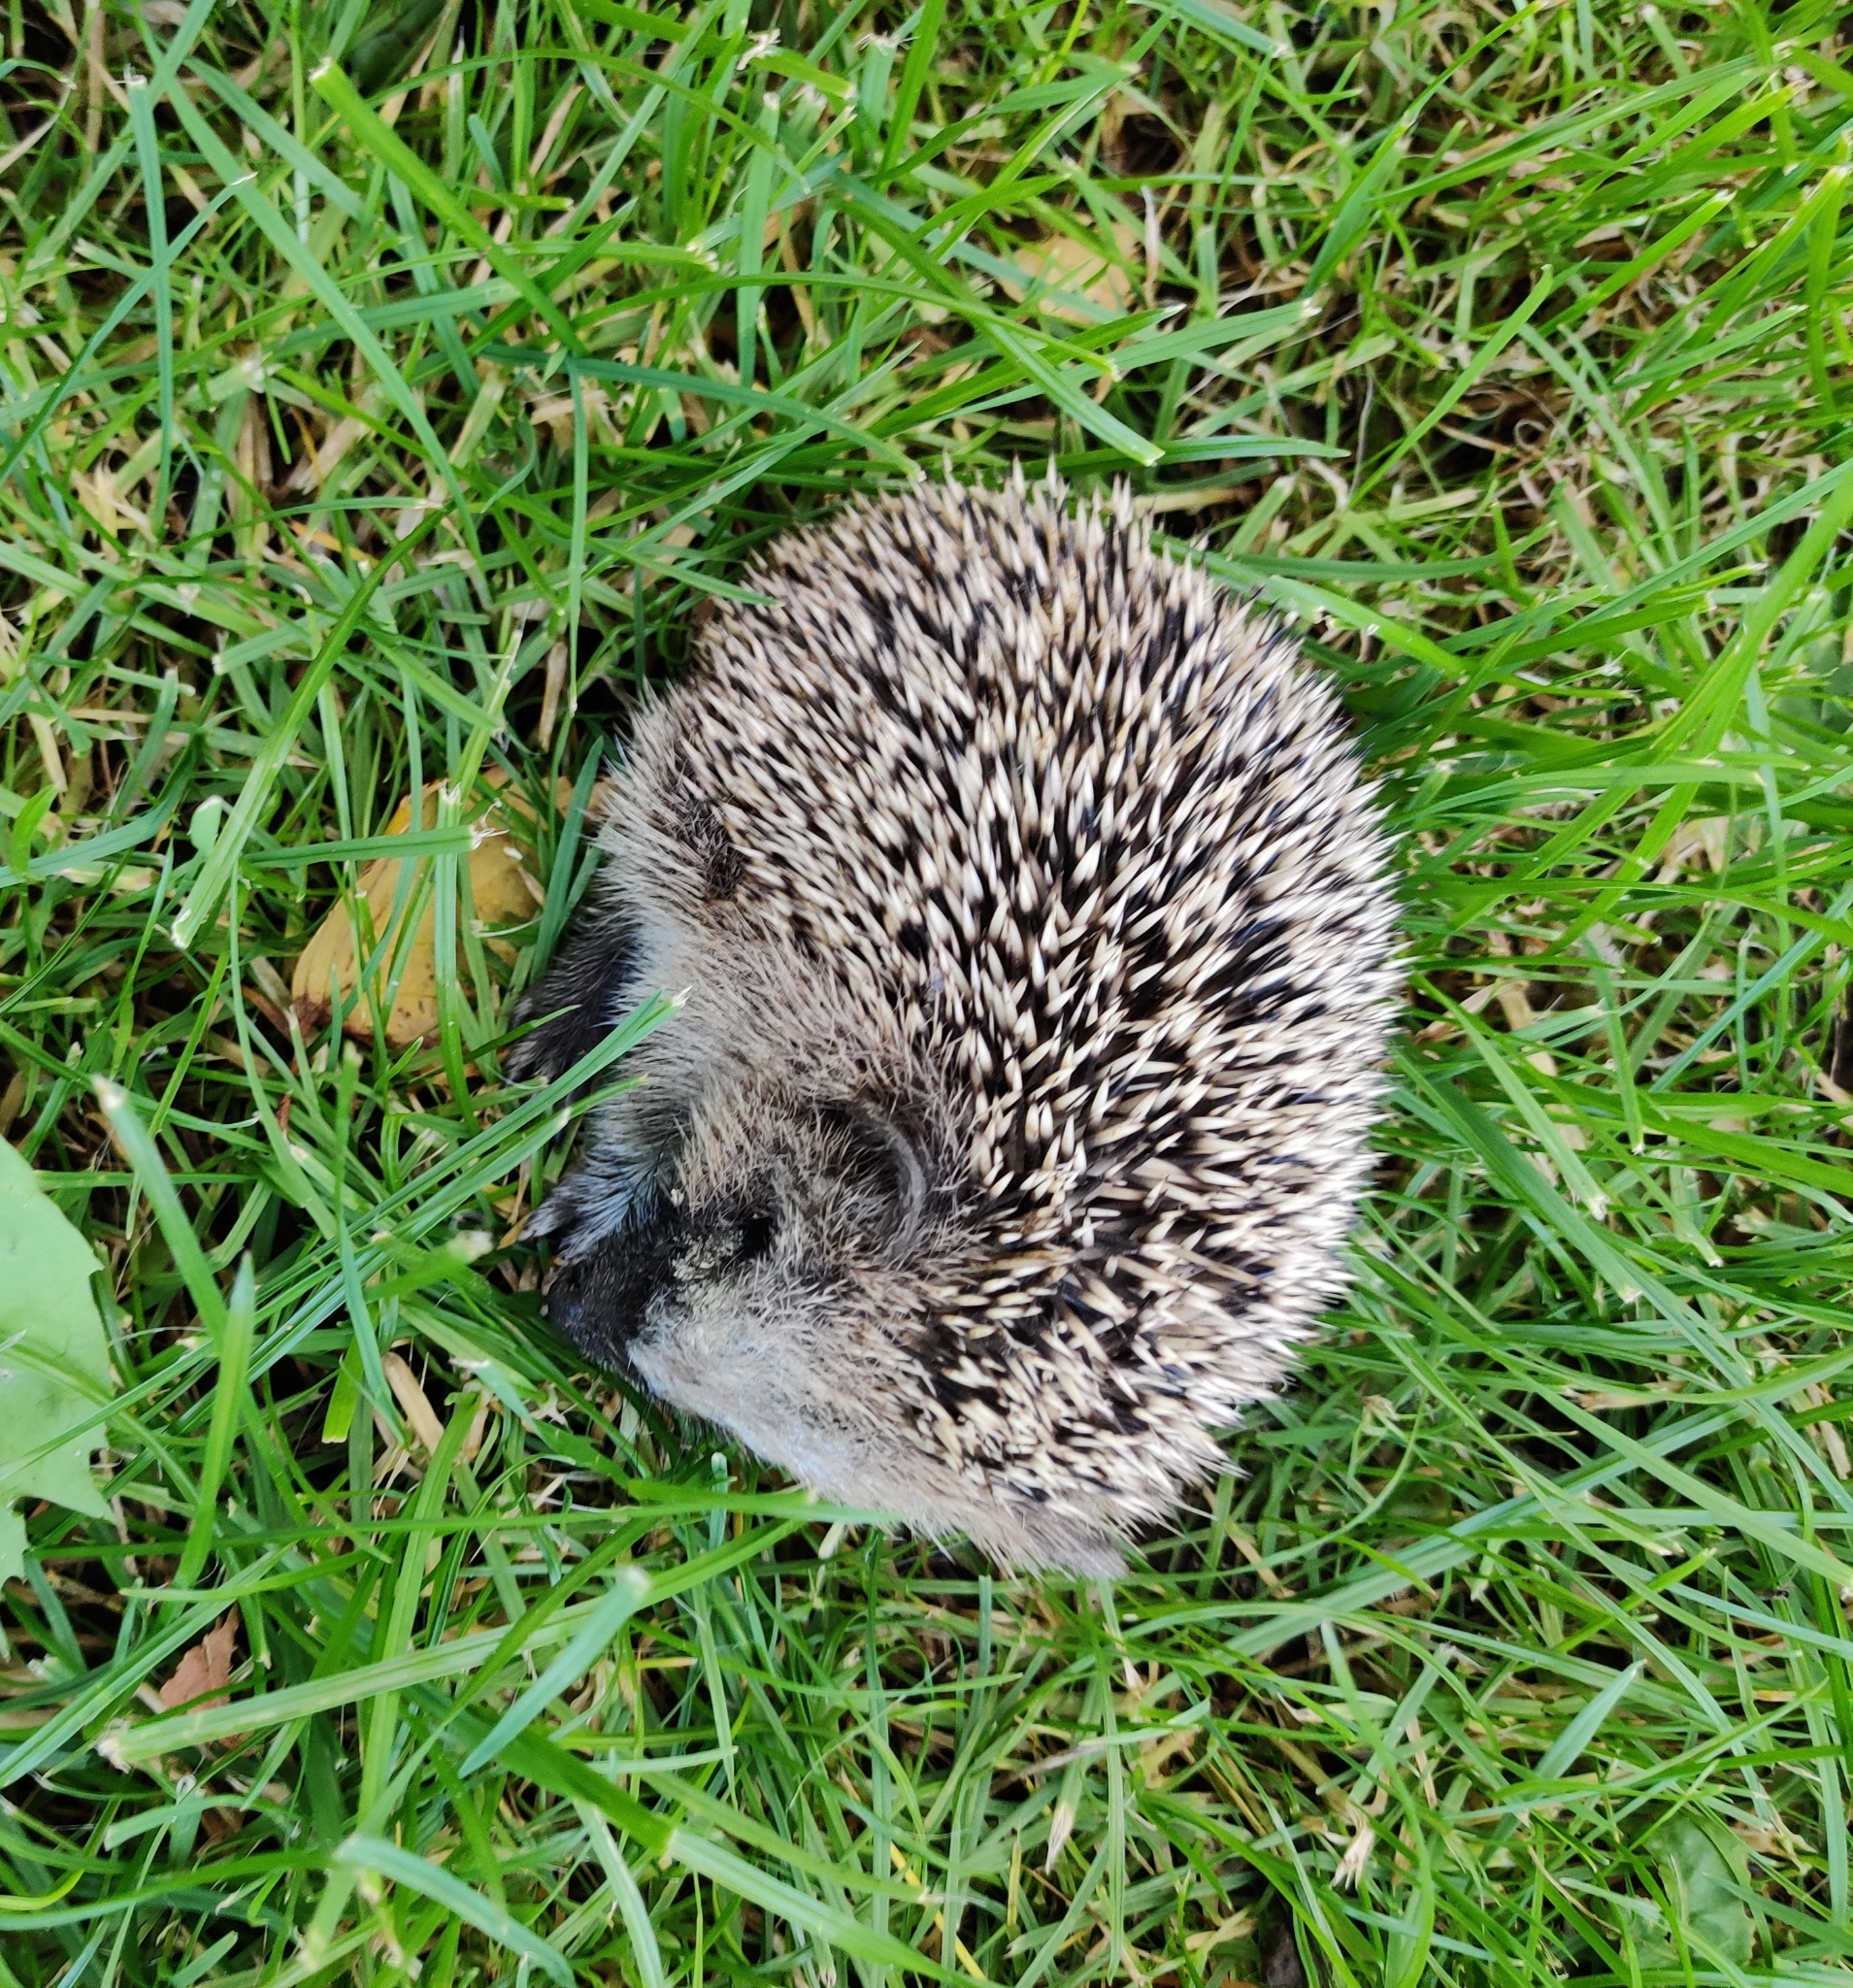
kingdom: Animalia
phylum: Chordata
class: Mammalia
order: Erinaceomorpha
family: Erinaceidae
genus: Erinaceus
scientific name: Erinaceus europaeus
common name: West european hedgehog
